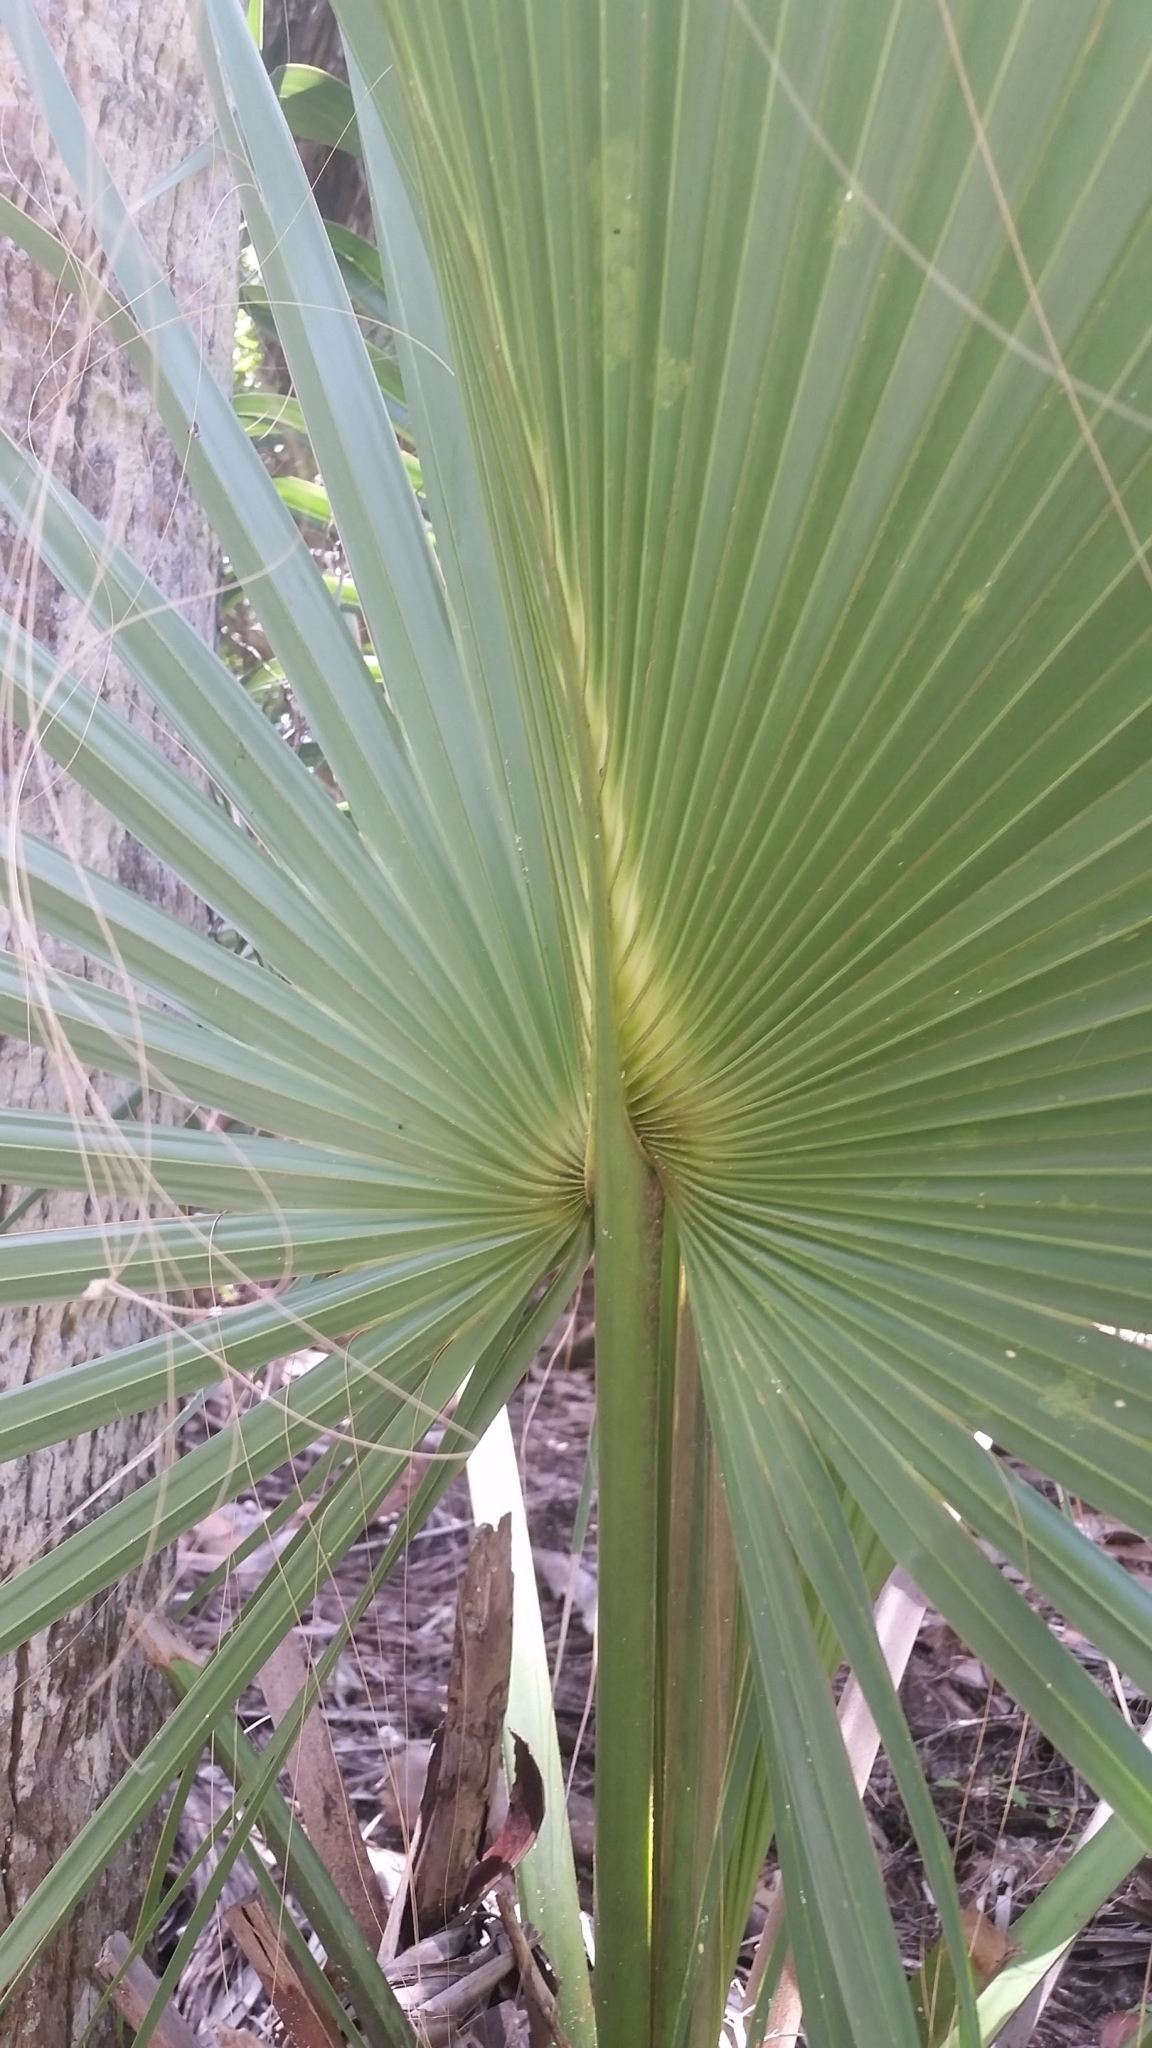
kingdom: Plantae
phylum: Tracheophyta
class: Liliopsida
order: Arecales
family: Arecaceae
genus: Sabal
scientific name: Sabal palmetto
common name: Blue palmetto
